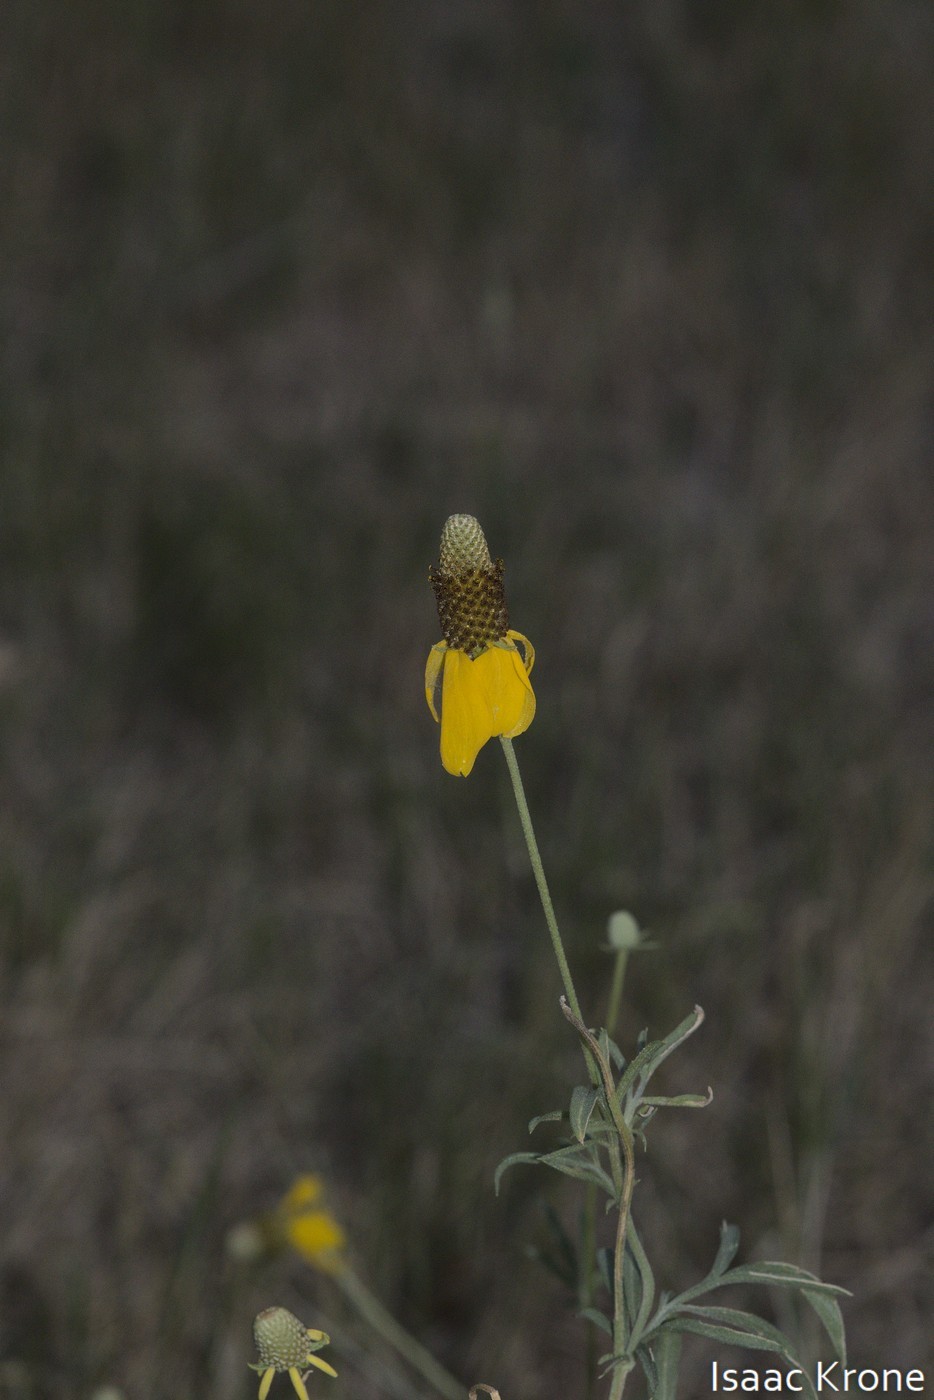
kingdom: Plantae
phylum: Tracheophyta
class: Magnoliopsida
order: Asterales
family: Asteraceae
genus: Ratibida
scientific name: Ratibida columnifera
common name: Prairie coneflower
